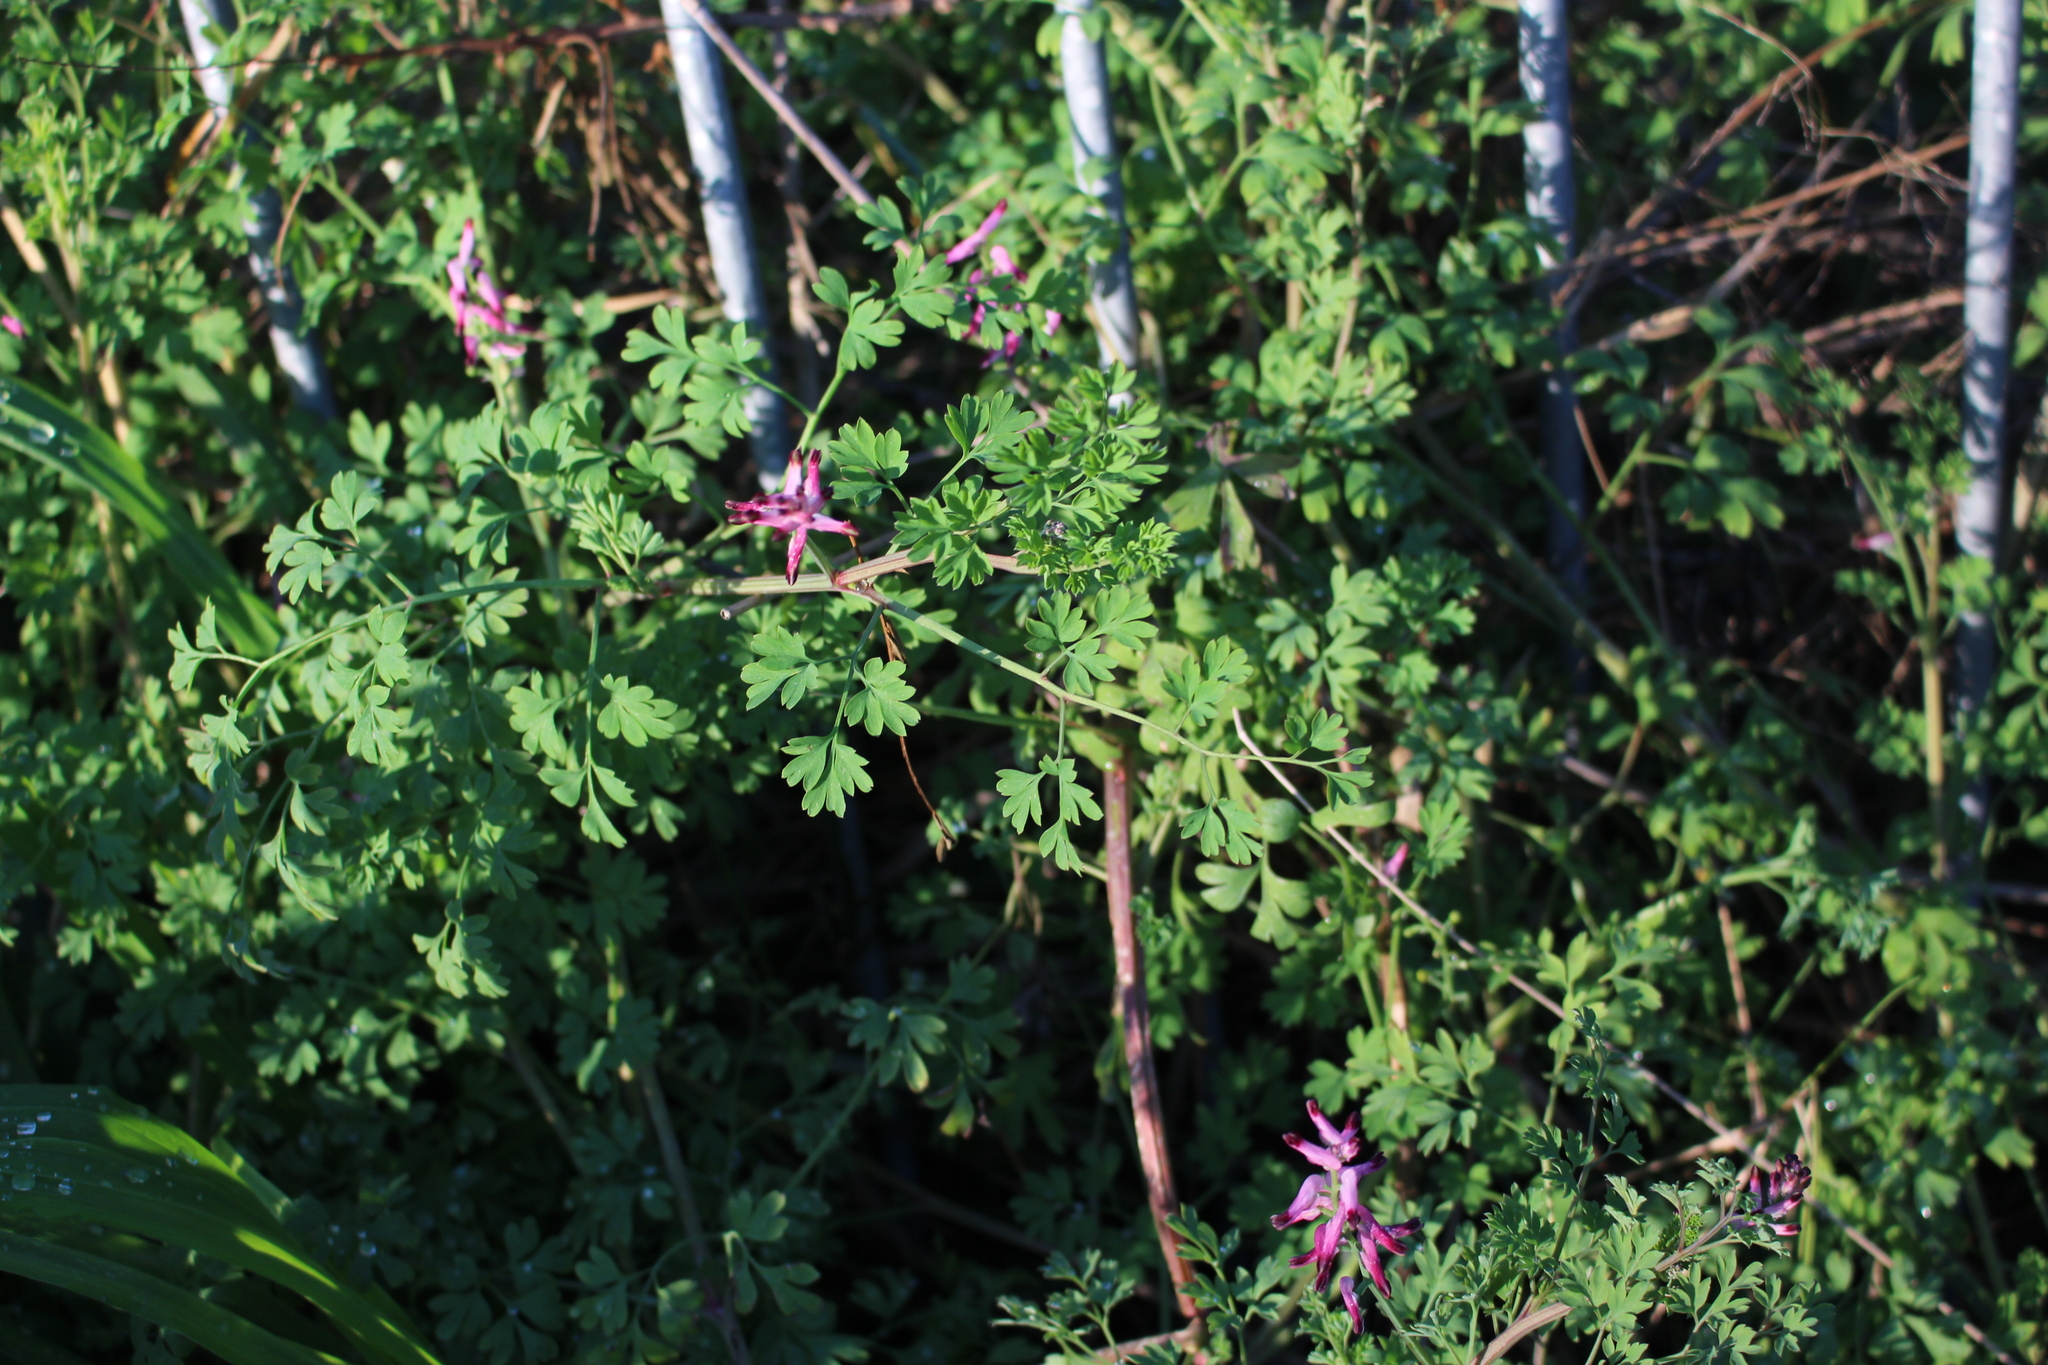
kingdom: Plantae
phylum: Tracheophyta
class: Magnoliopsida
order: Ranunculales
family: Papaveraceae
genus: Fumaria
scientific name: Fumaria muralis
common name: Common ramping-fumitory
